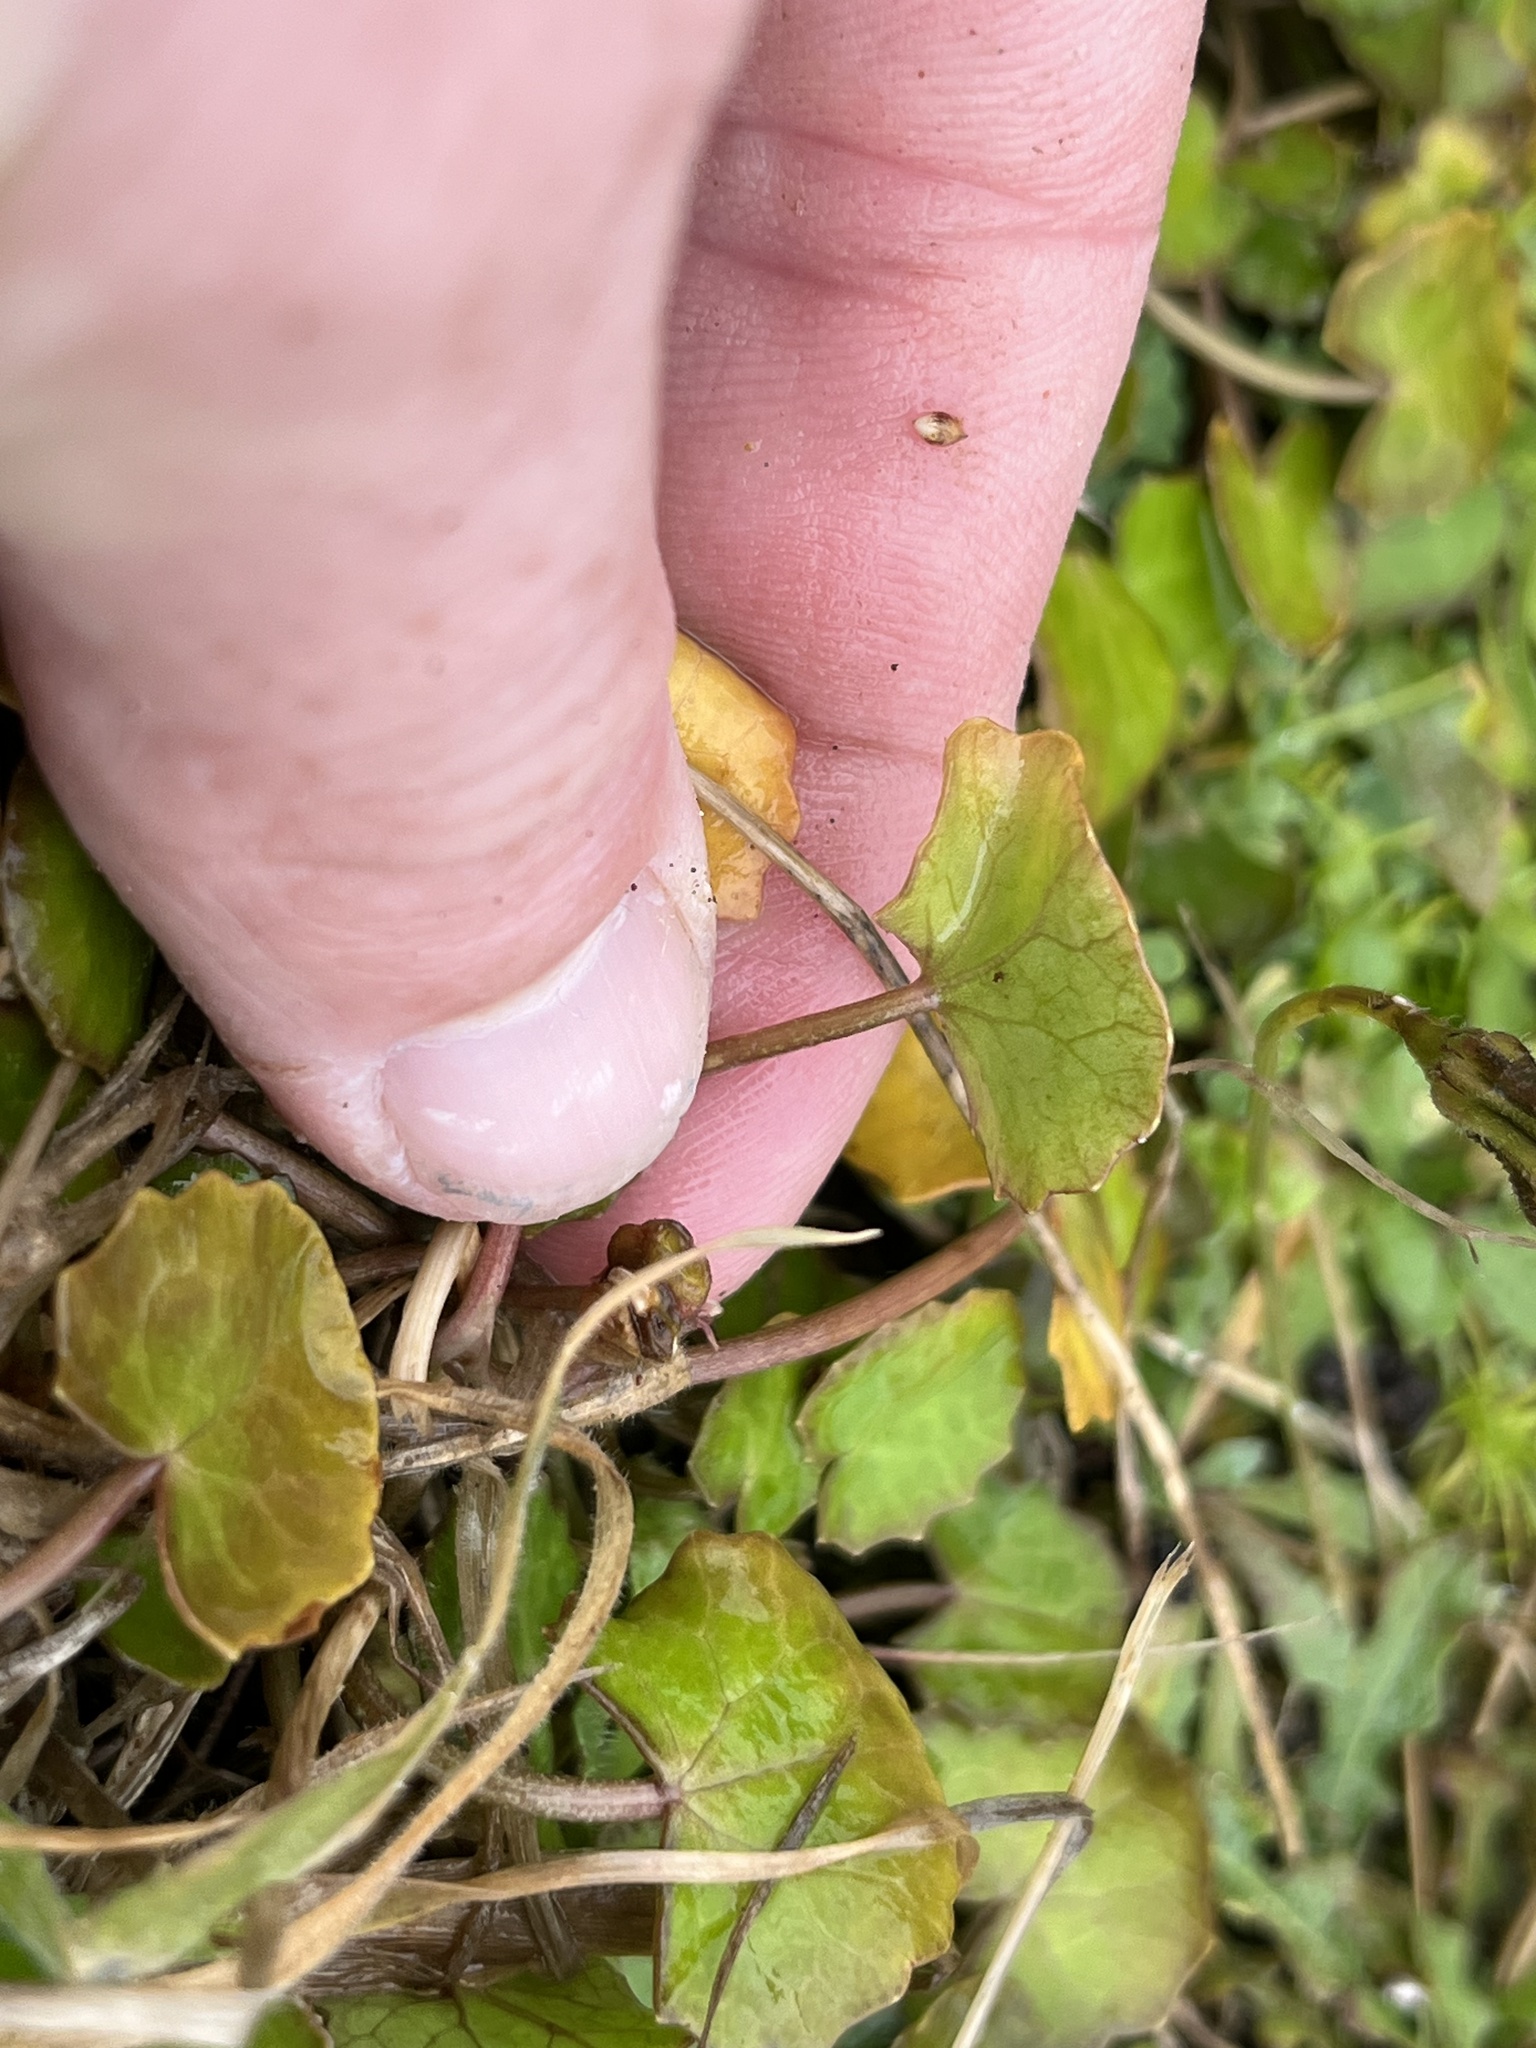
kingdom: Plantae
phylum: Tracheophyta
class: Magnoliopsida
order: Apiales
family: Apiaceae
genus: Centella
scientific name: Centella uniflora
